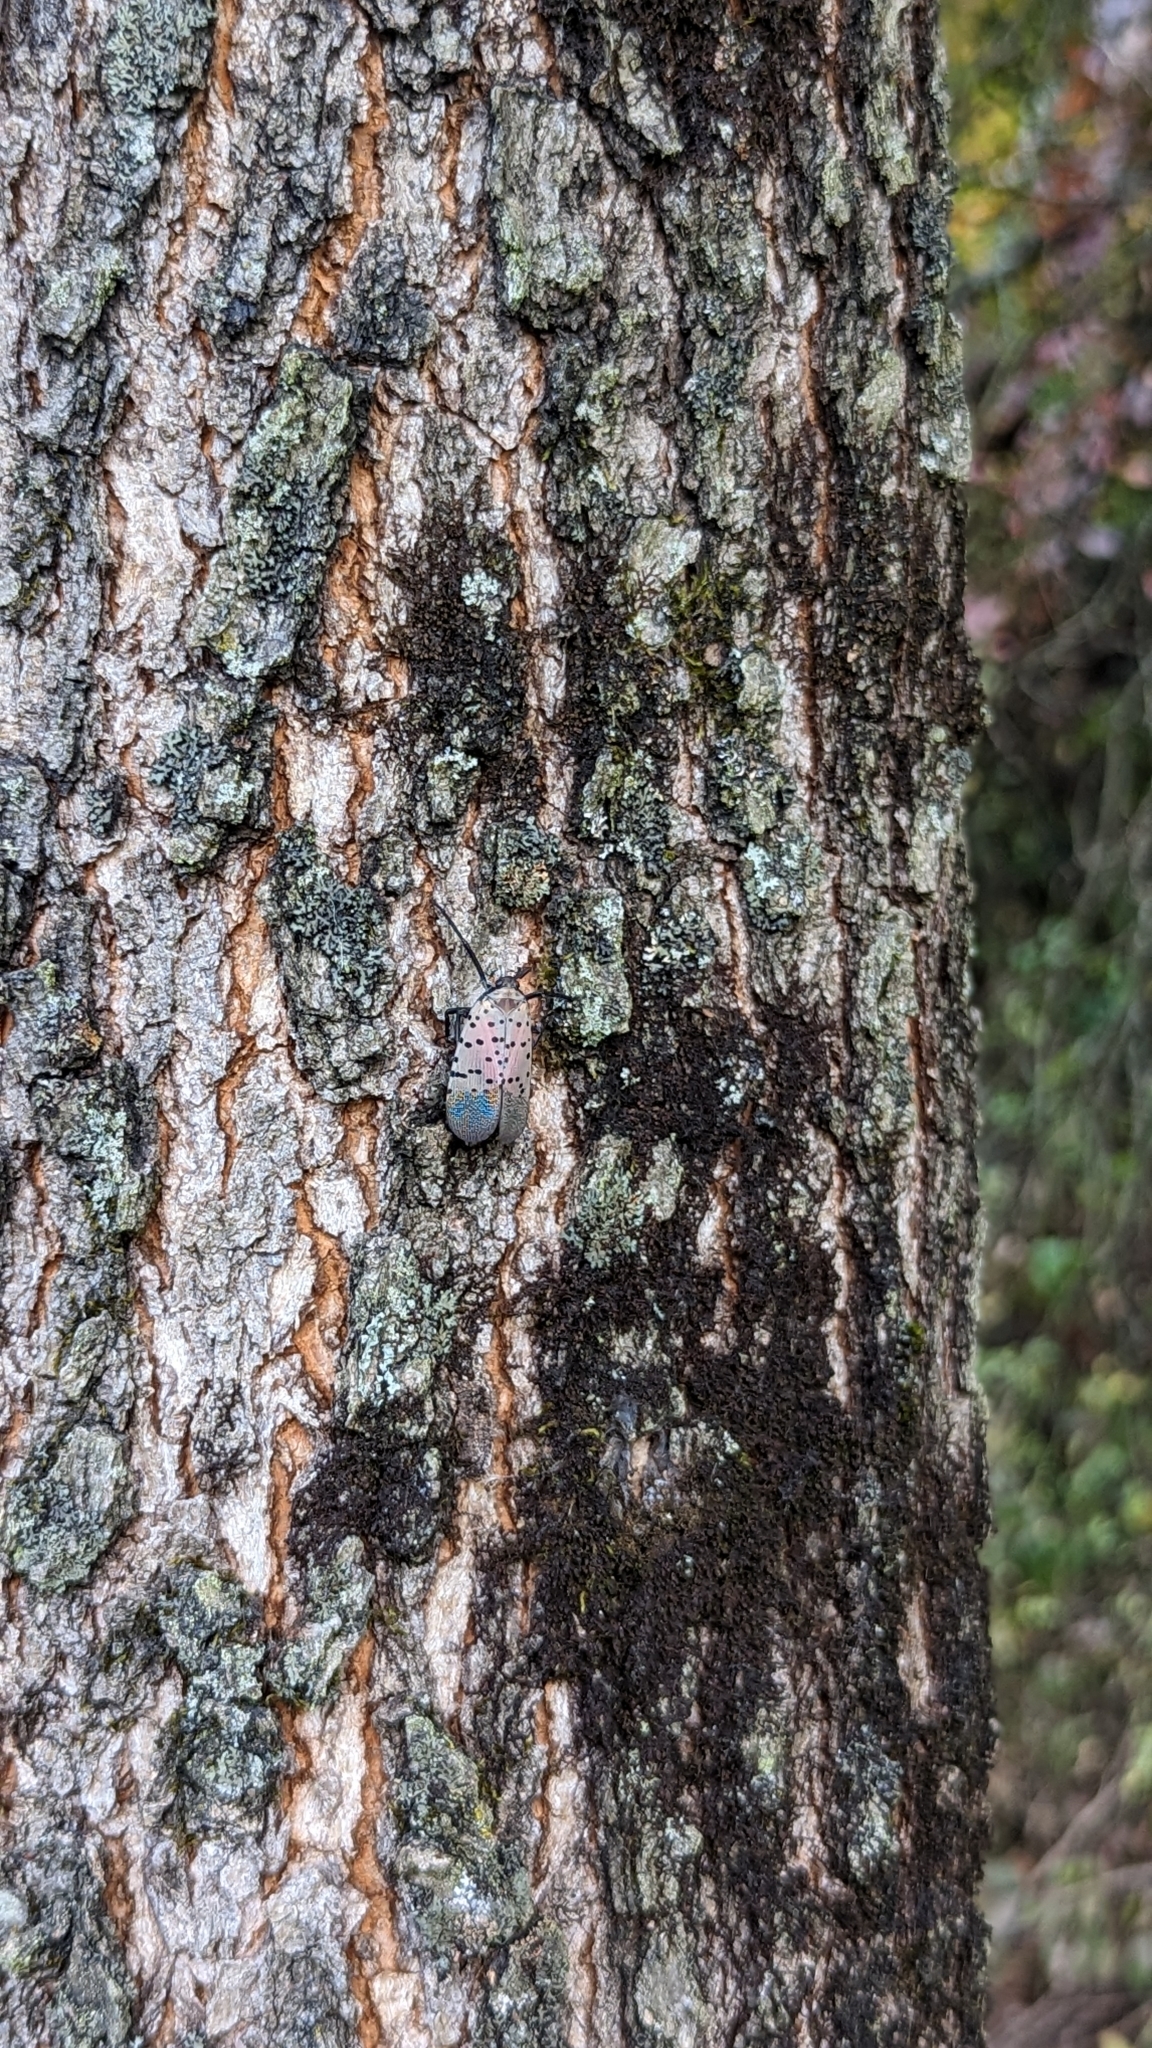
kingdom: Animalia
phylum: Arthropoda
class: Insecta
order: Hemiptera
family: Fulgoridae
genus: Lycorma
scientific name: Lycorma delicatula
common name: Spotted lanternfly
